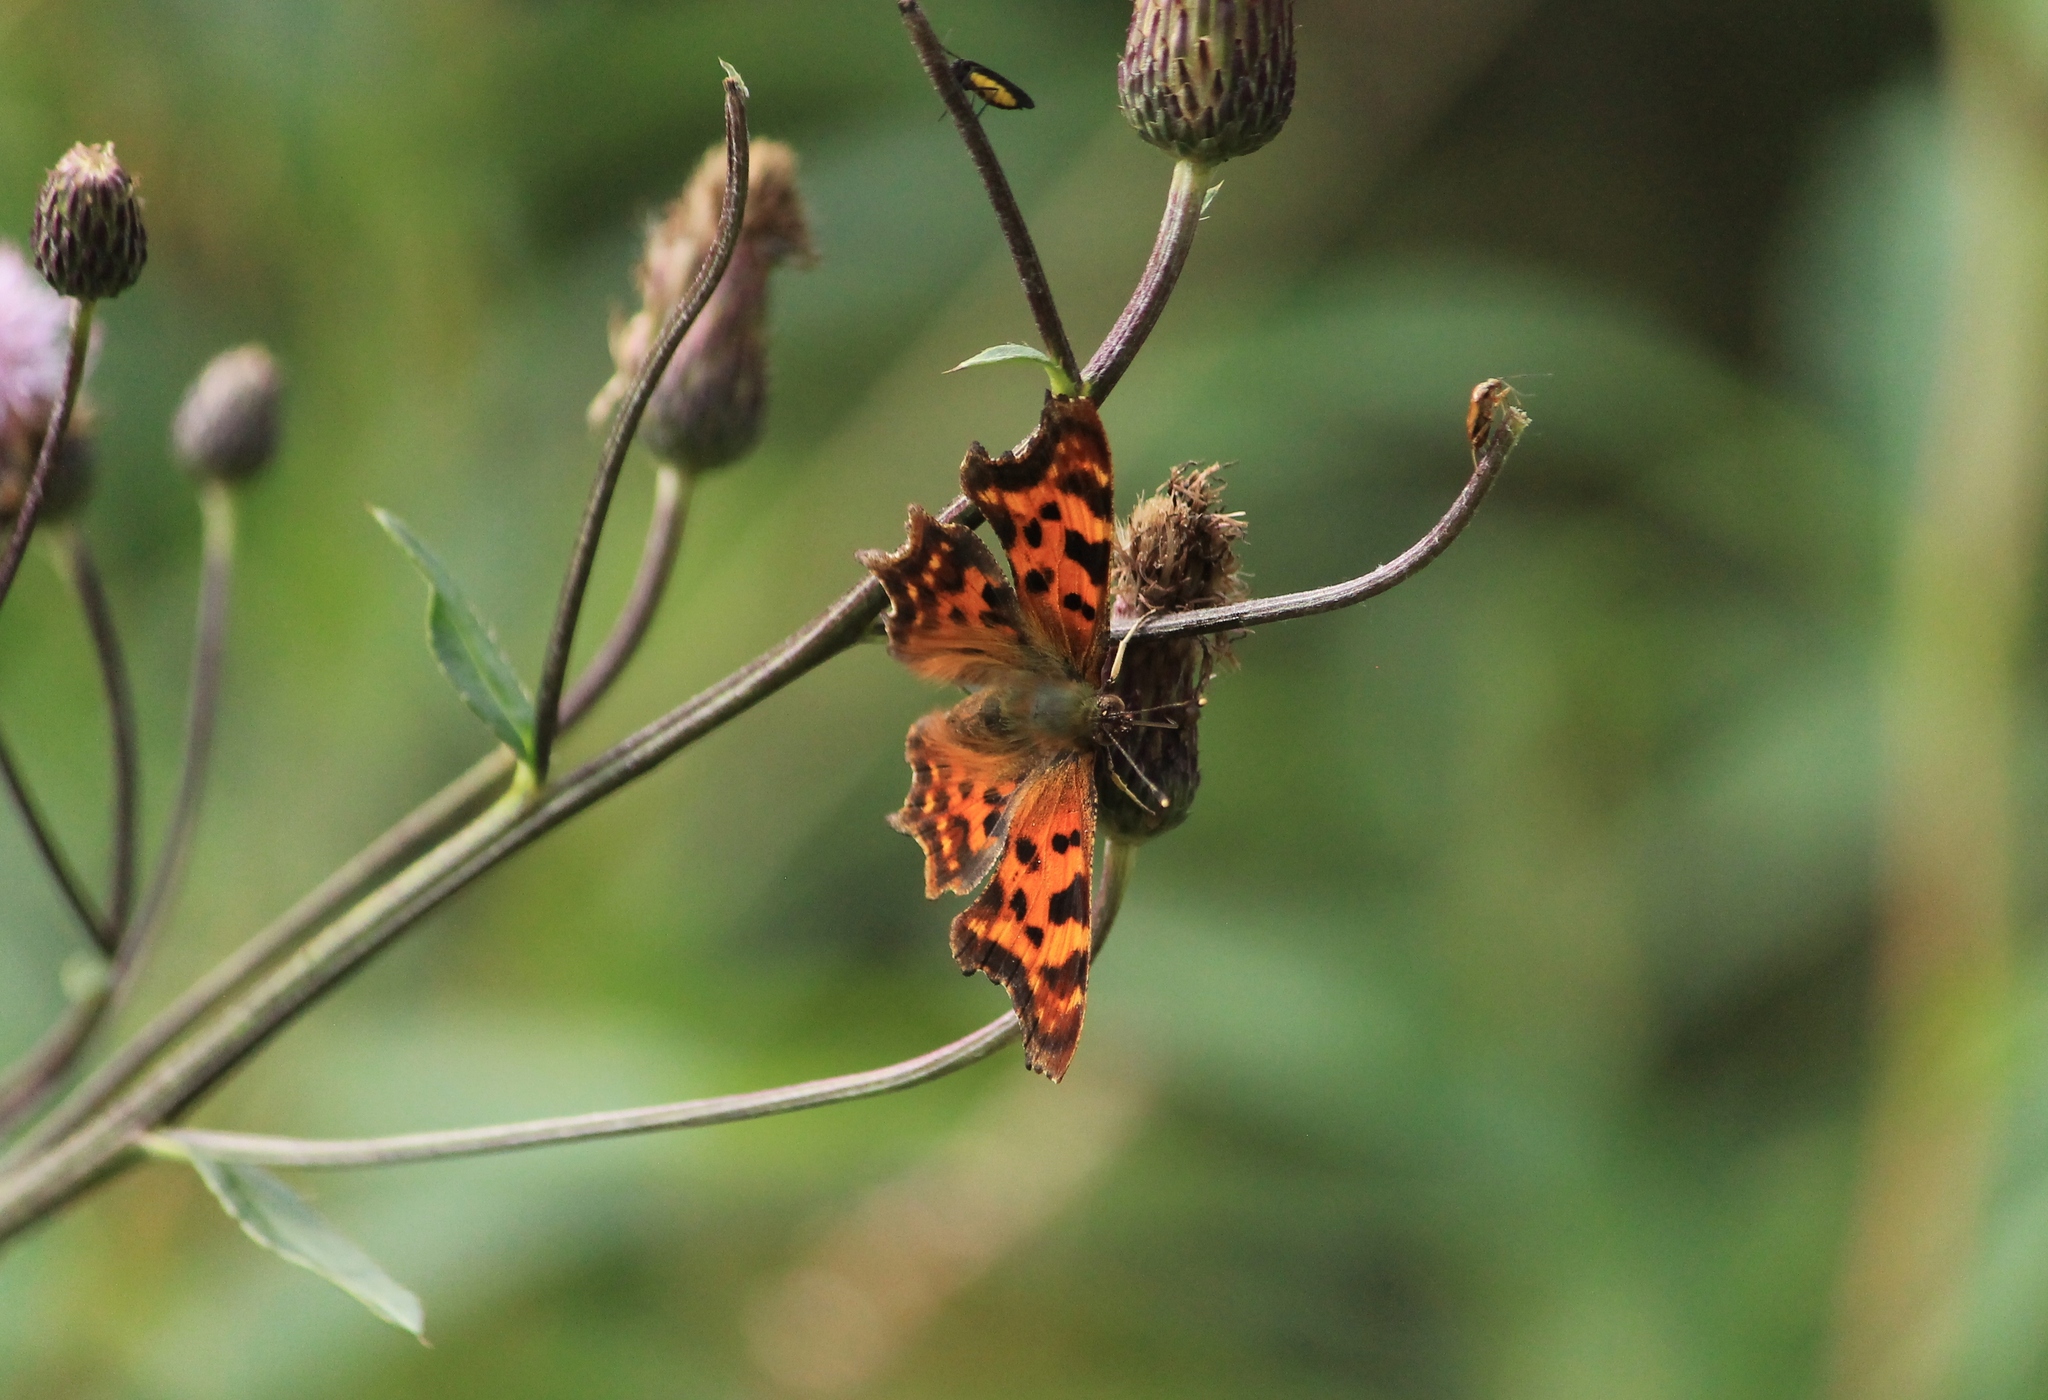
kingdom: Animalia
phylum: Arthropoda
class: Insecta
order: Lepidoptera
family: Nymphalidae
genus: Polygonia
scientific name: Polygonia c-album
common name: Comma
